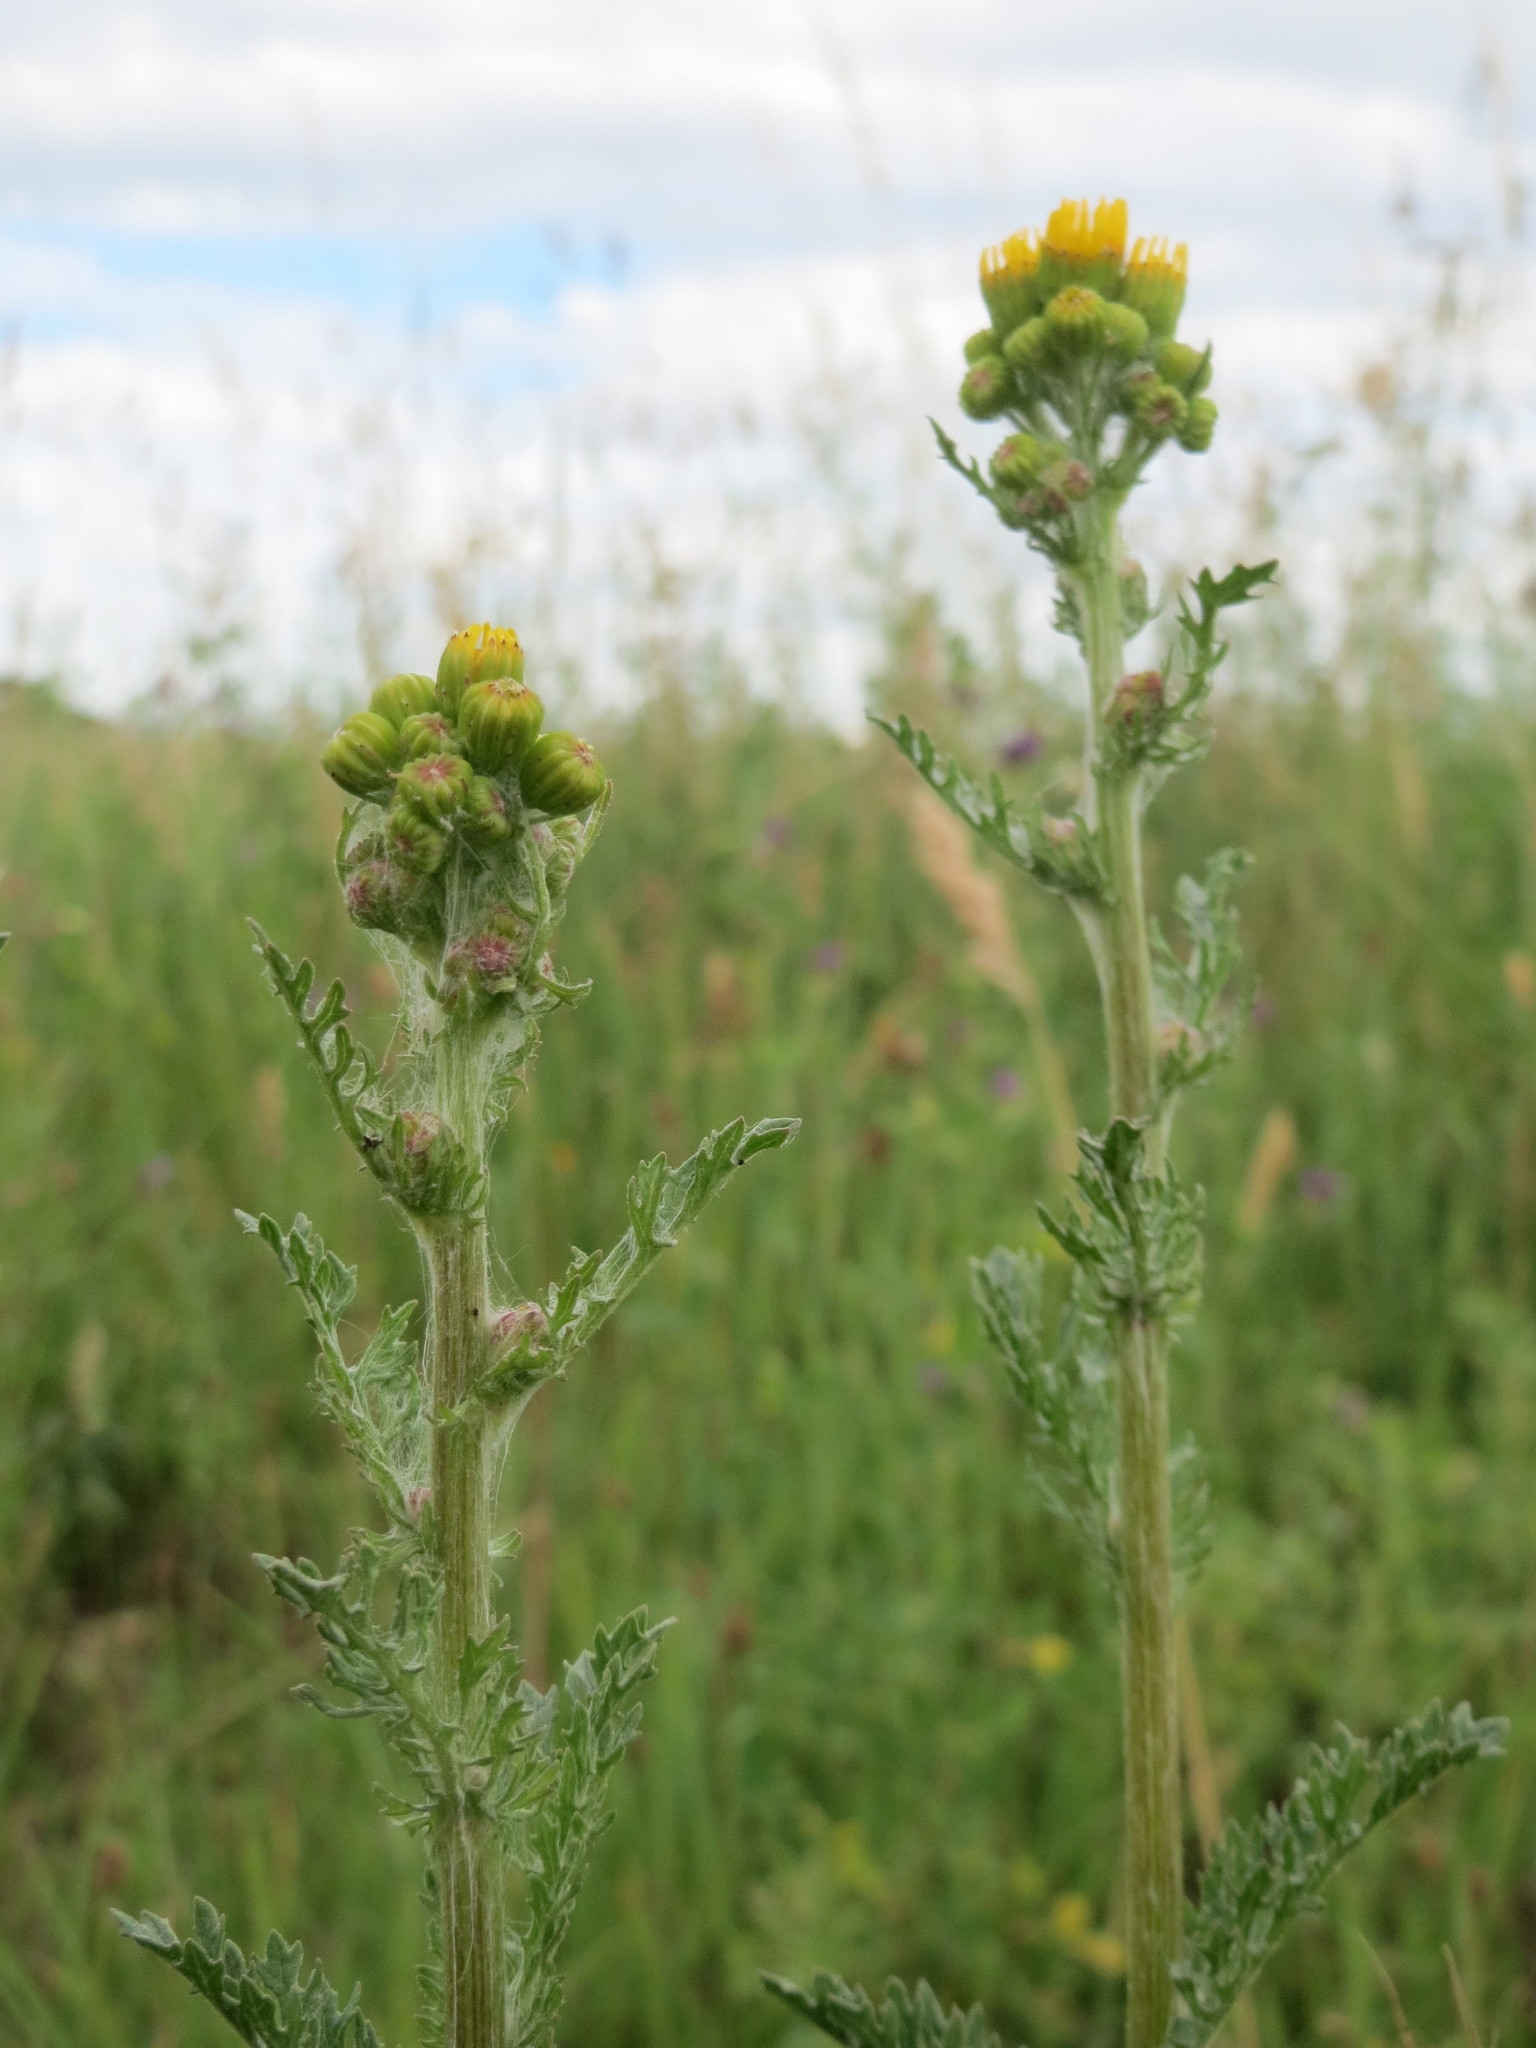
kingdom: Plantae
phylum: Tracheophyta
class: Magnoliopsida
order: Asterales
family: Asteraceae
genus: Jacobaea
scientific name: Jacobaea vulgaris
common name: Stinking willie
